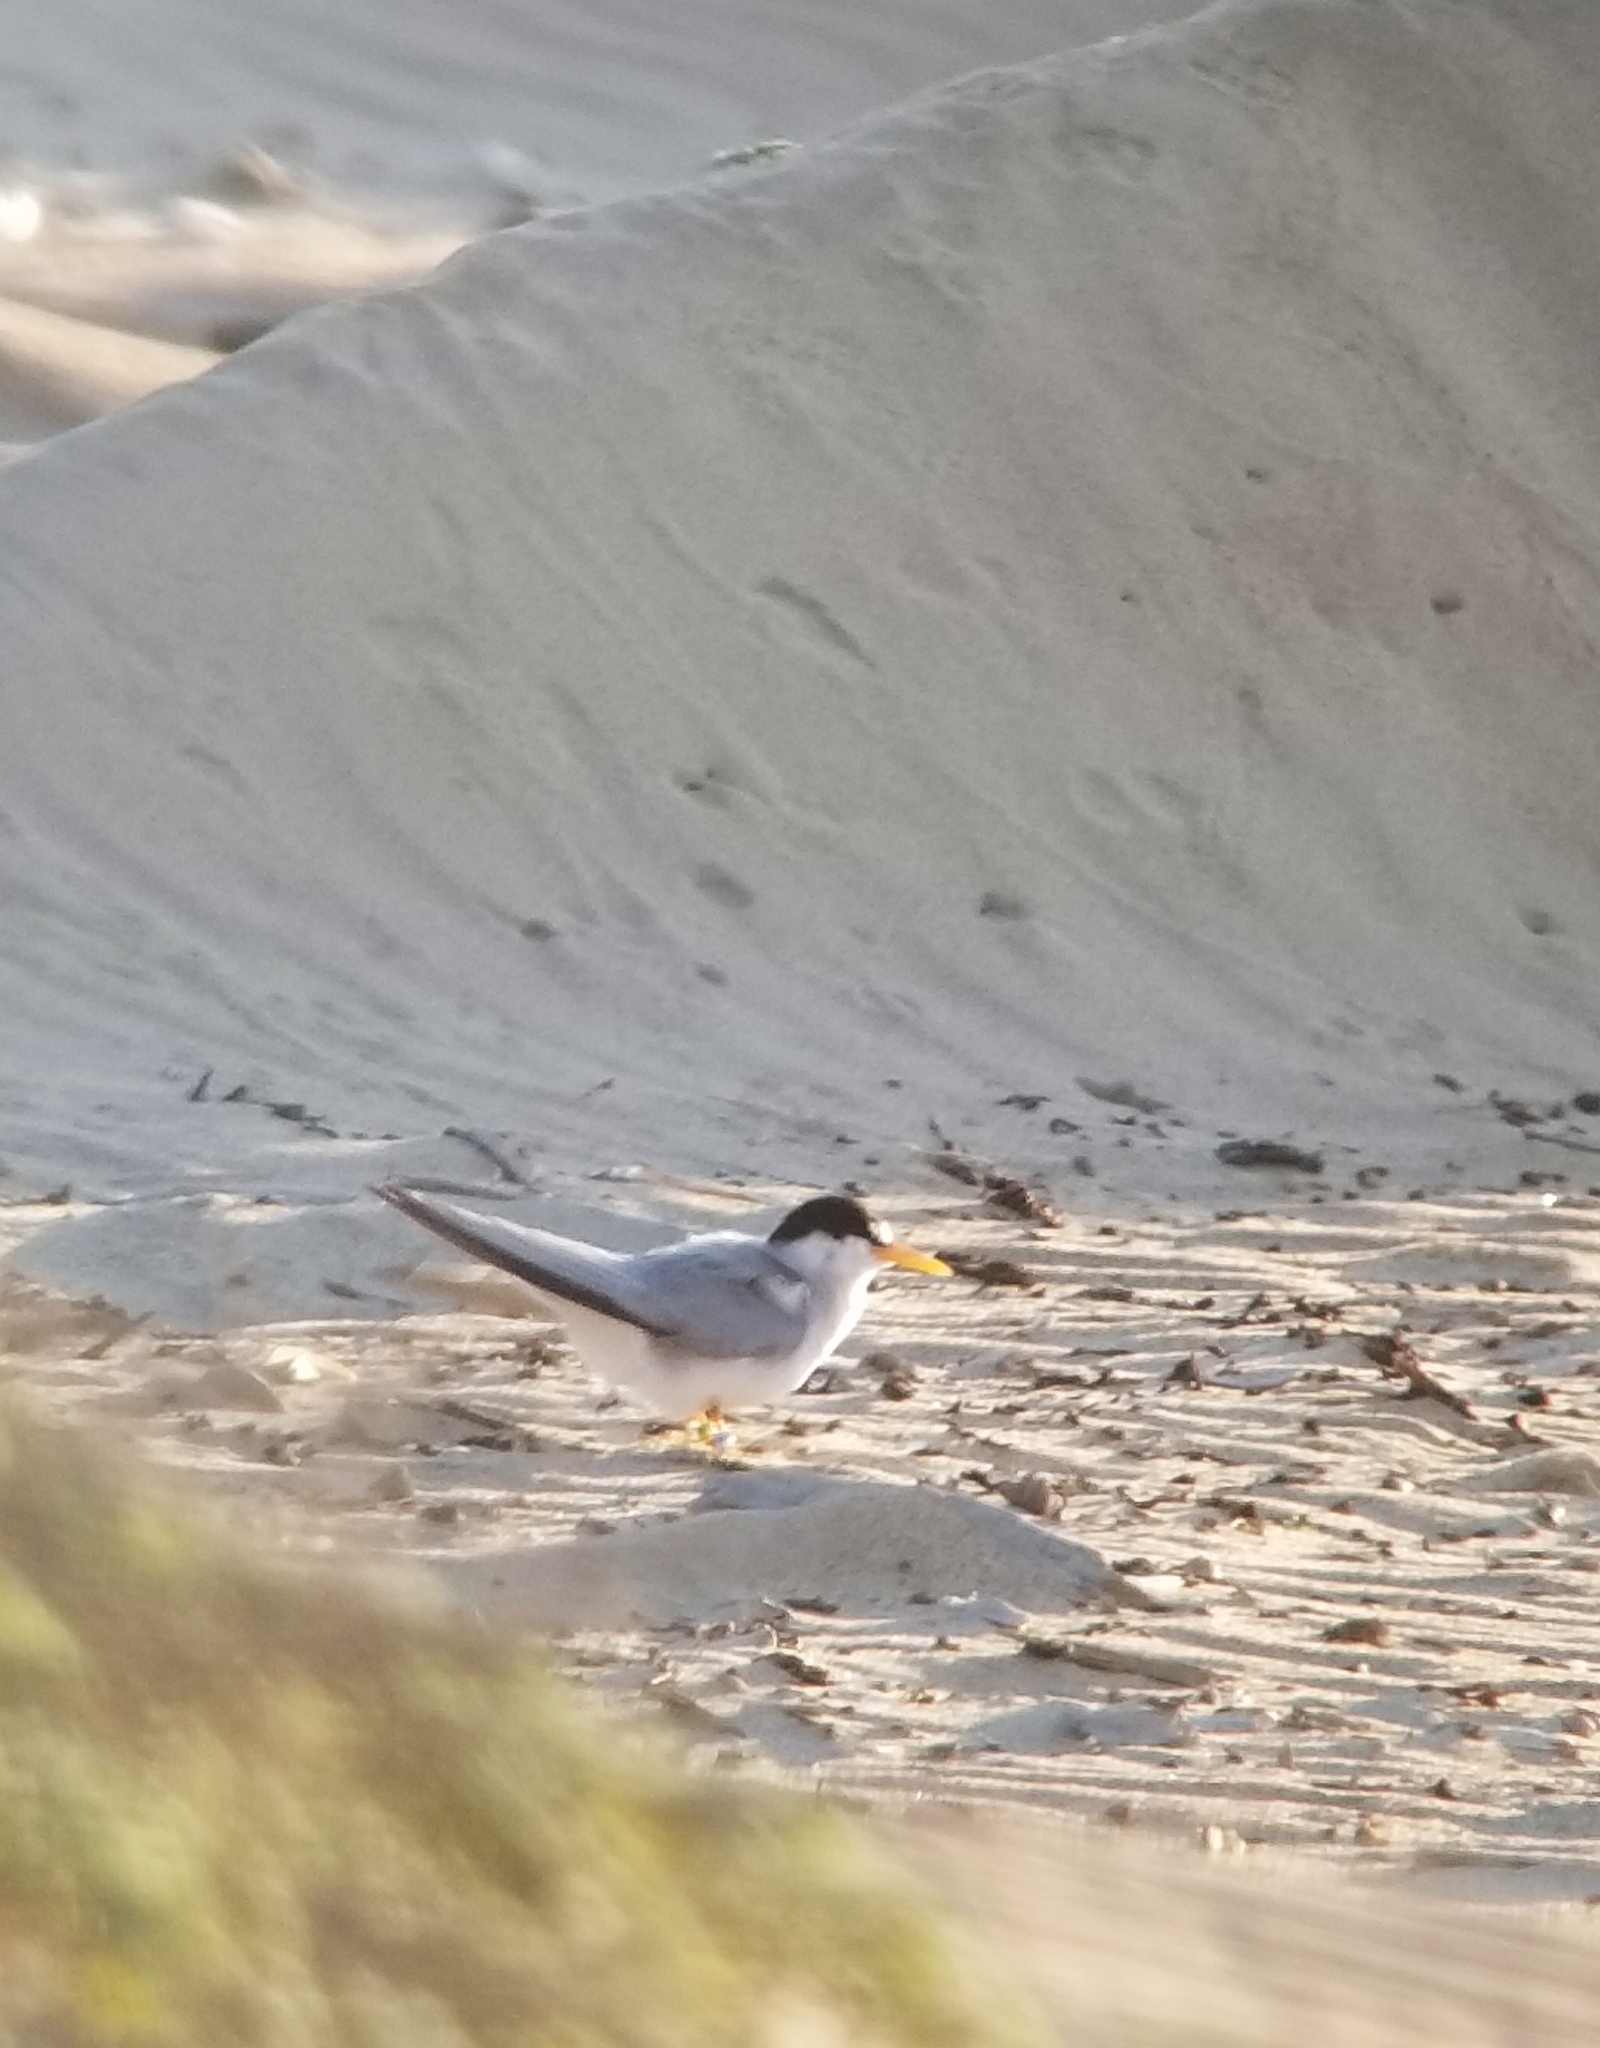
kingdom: Animalia
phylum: Chordata
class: Aves
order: Charadriiformes
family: Laridae
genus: Sternula
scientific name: Sternula antillarum
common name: Least tern
